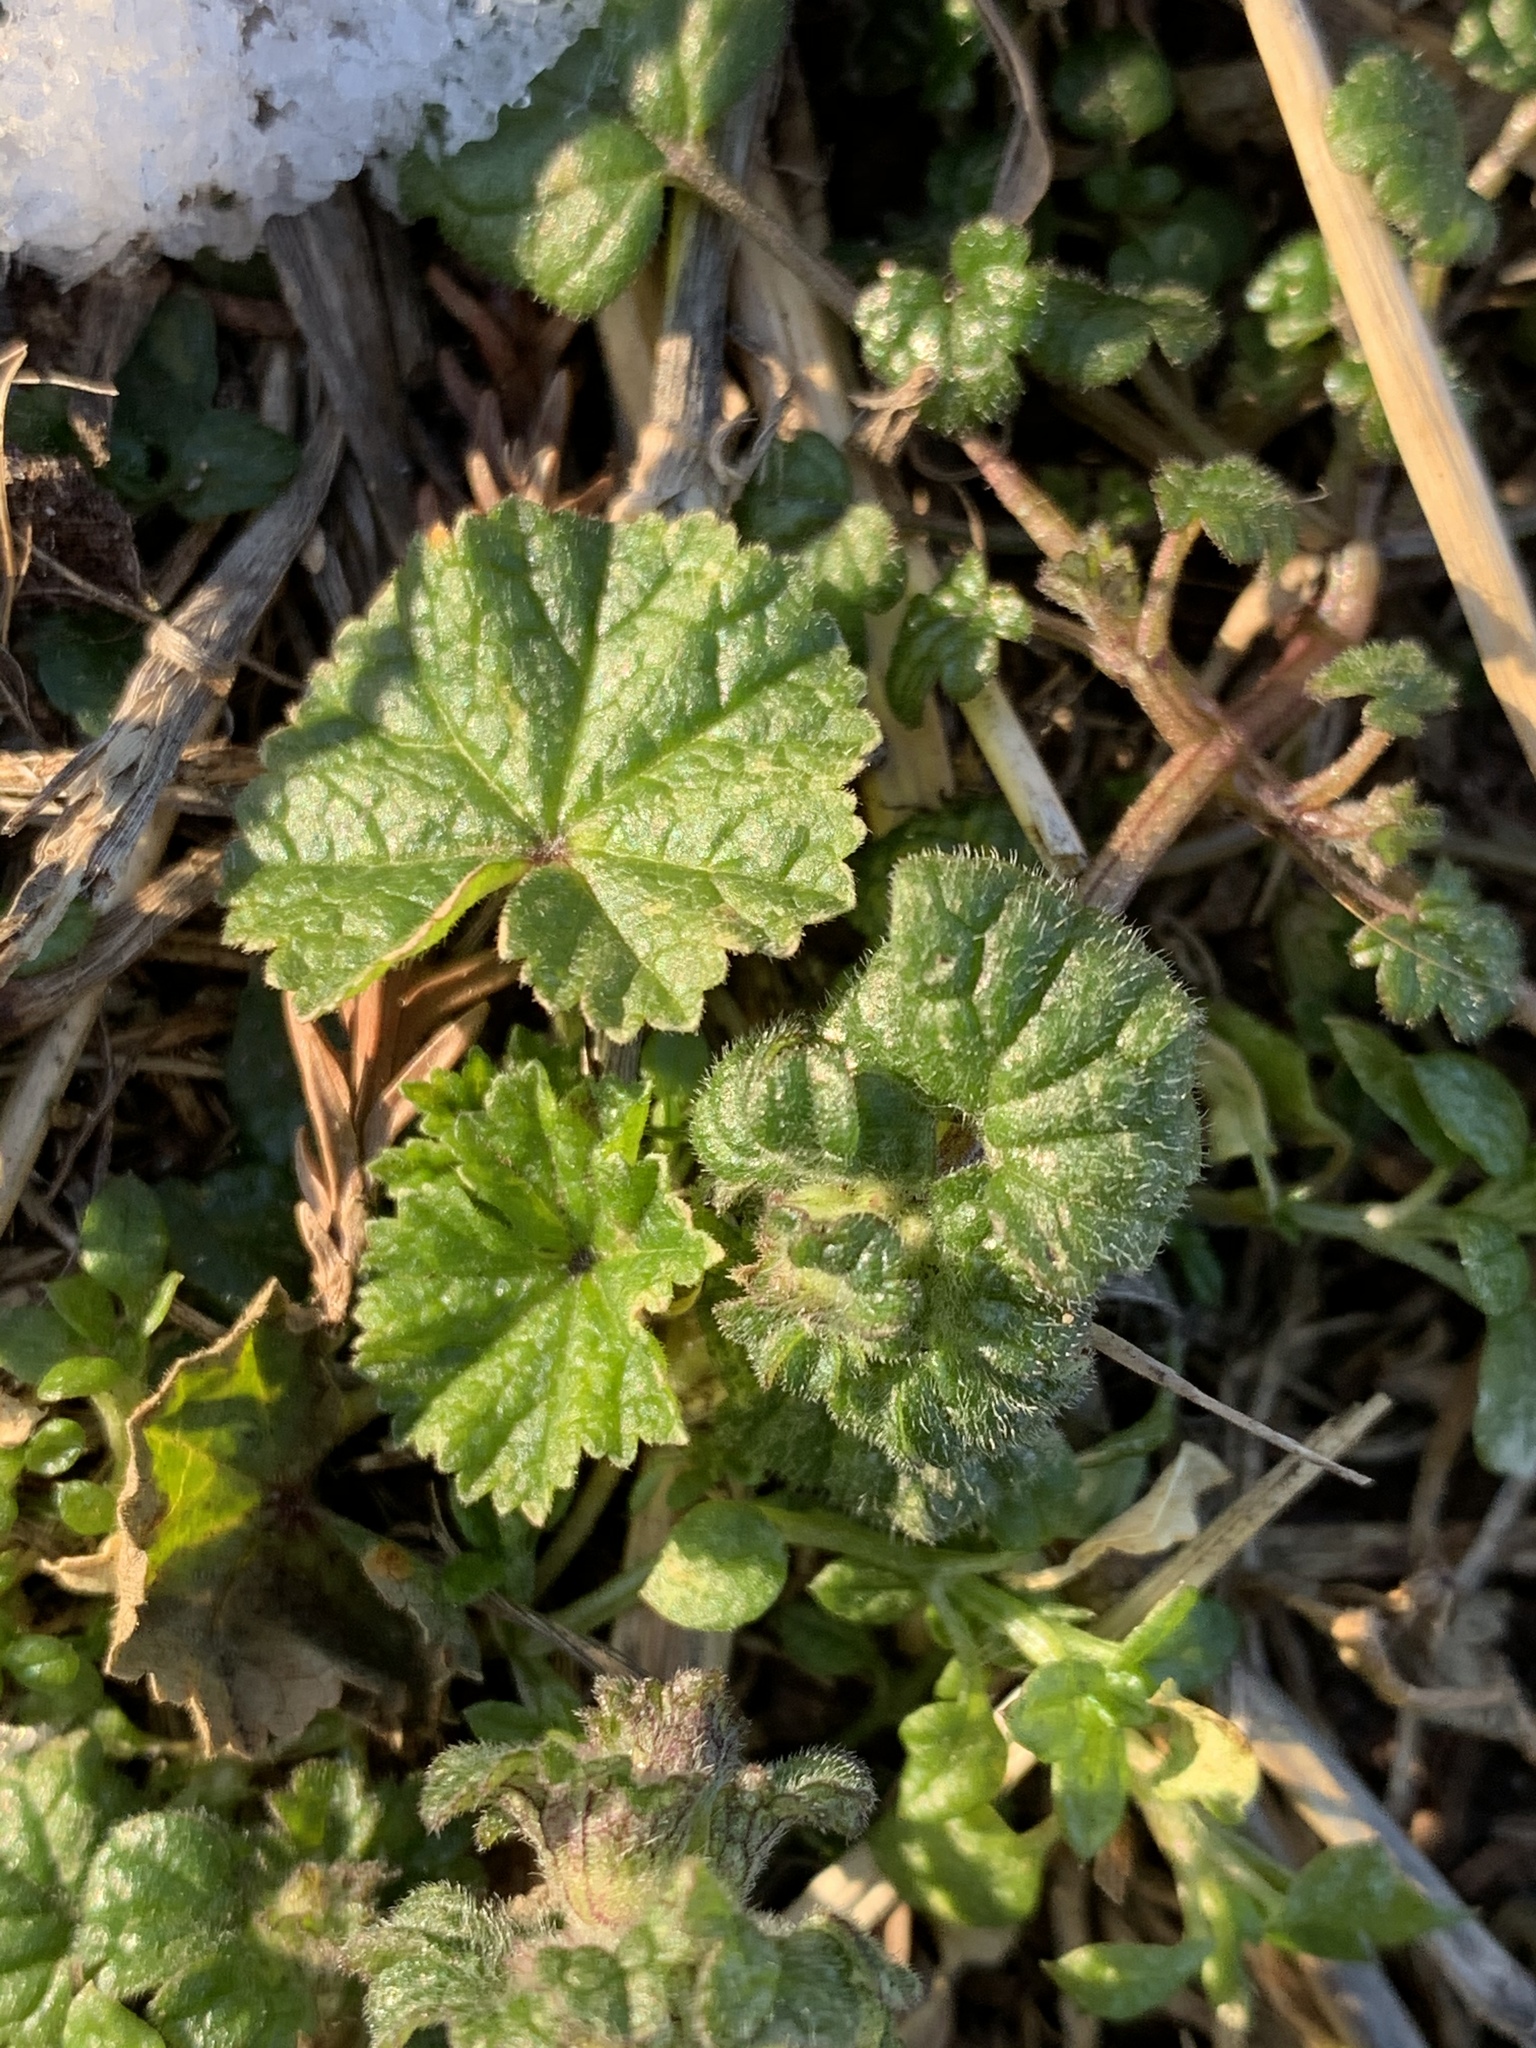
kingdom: Plantae
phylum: Tracheophyta
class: Magnoliopsida
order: Malvales
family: Malvaceae
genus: Malva
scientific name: Malva neglecta
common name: Common mallow
